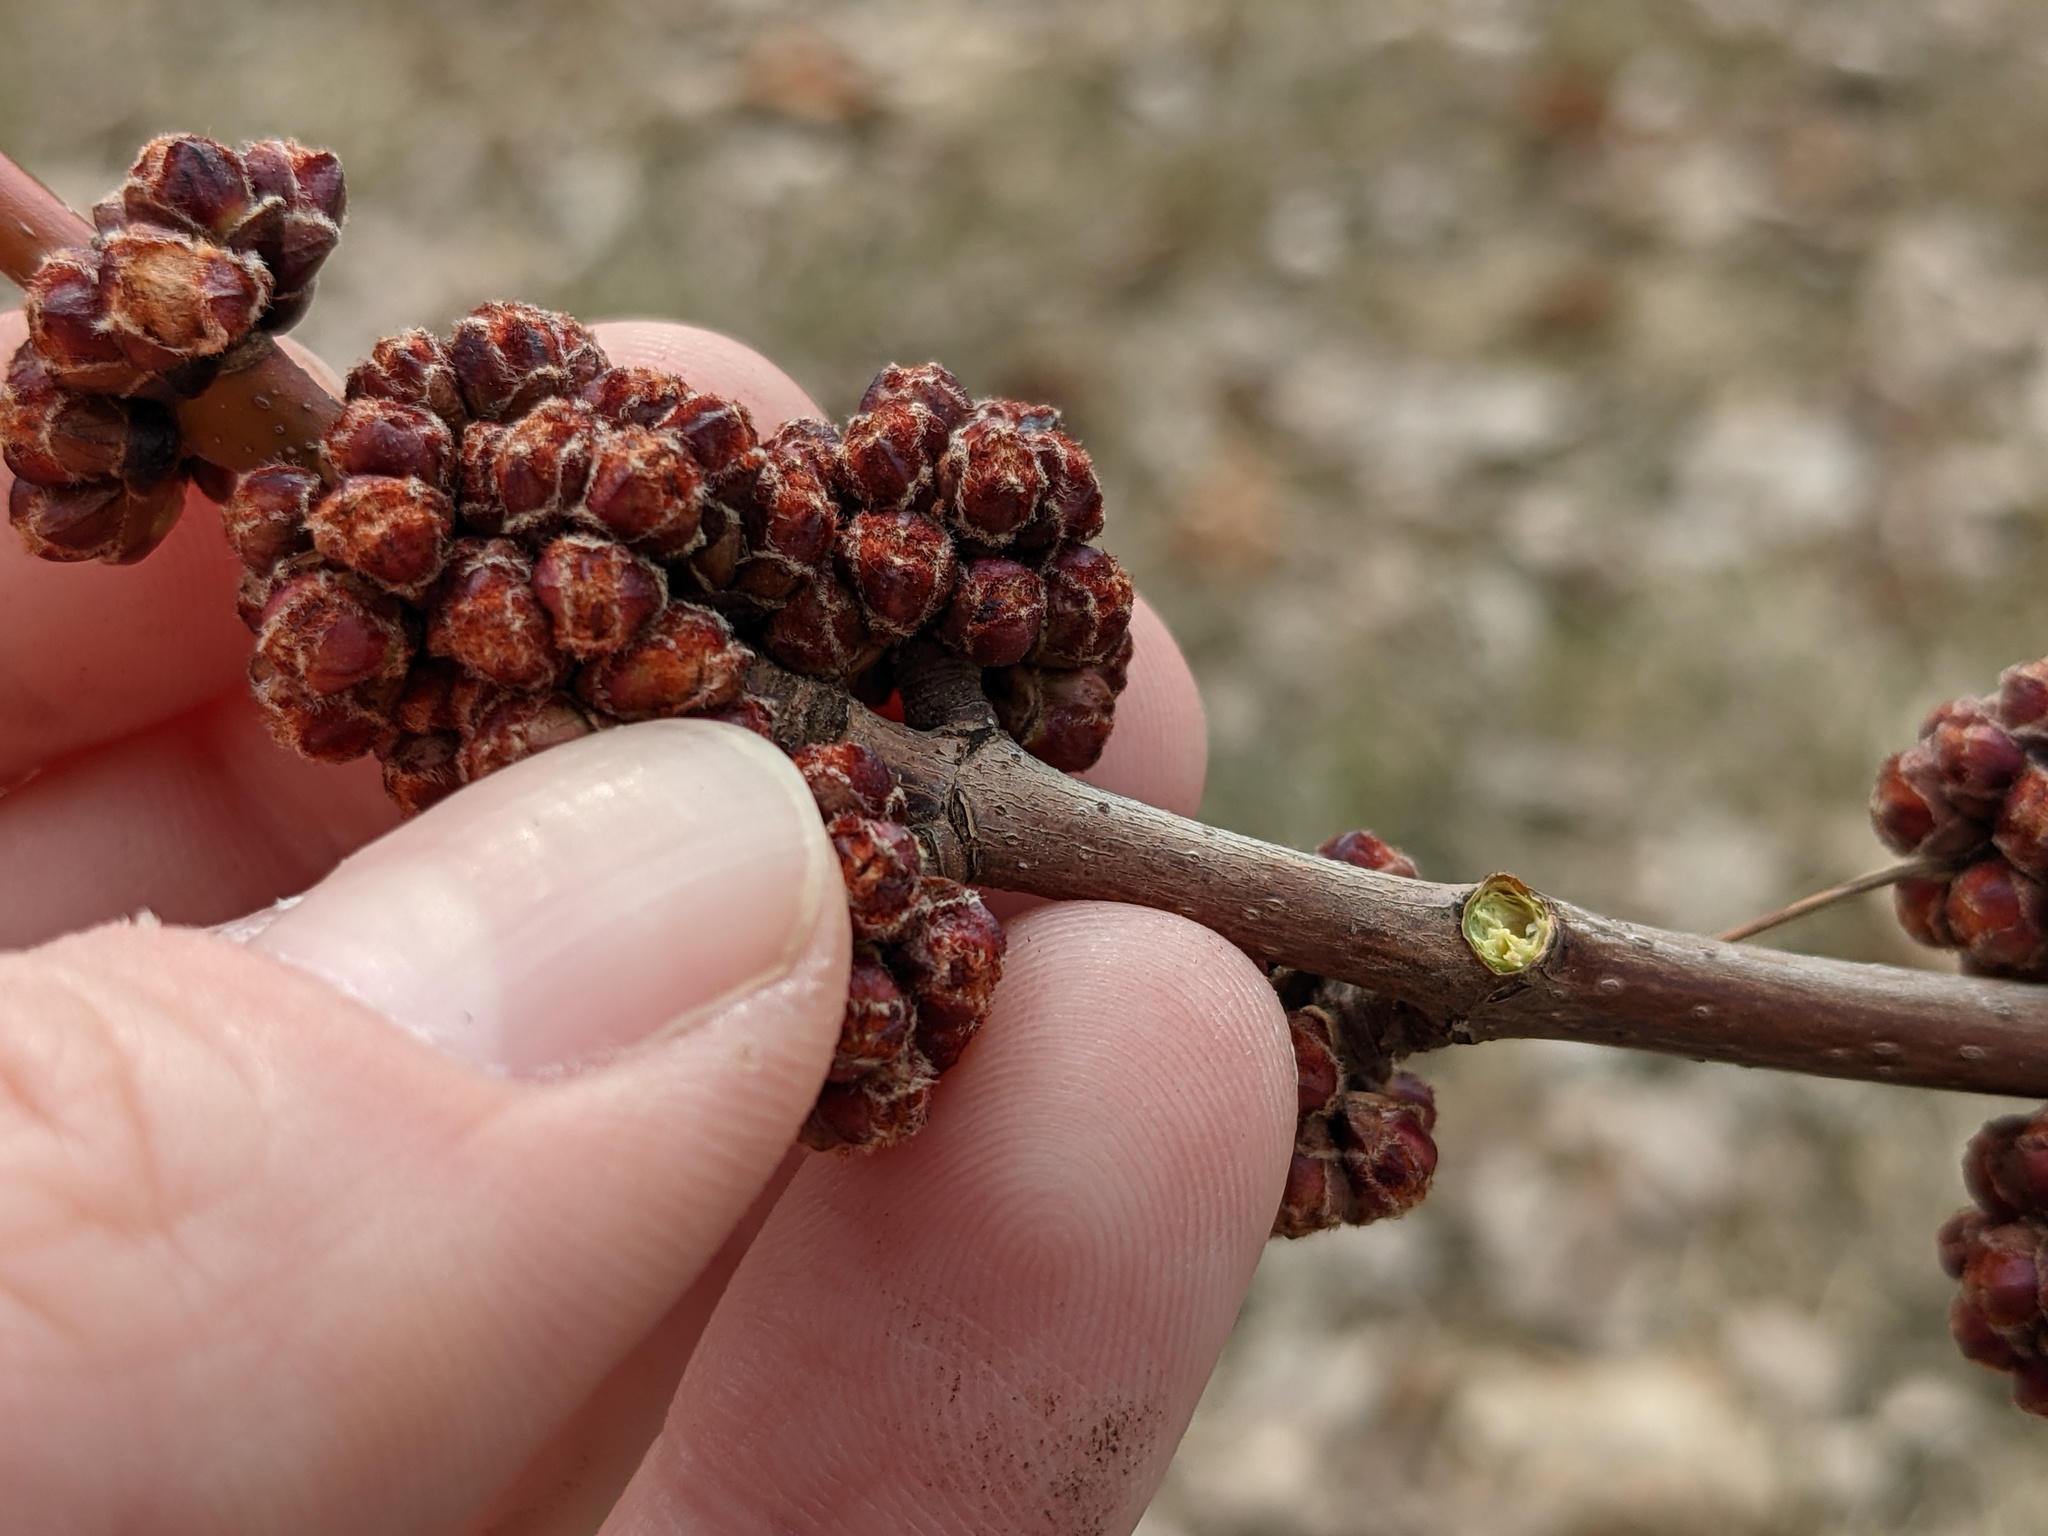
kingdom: Plantae
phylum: Tracheophyta
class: Magnoliopsida
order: Sapindales
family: Sapindaceae
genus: Acer
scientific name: Acer saccharinum
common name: Silver maple
